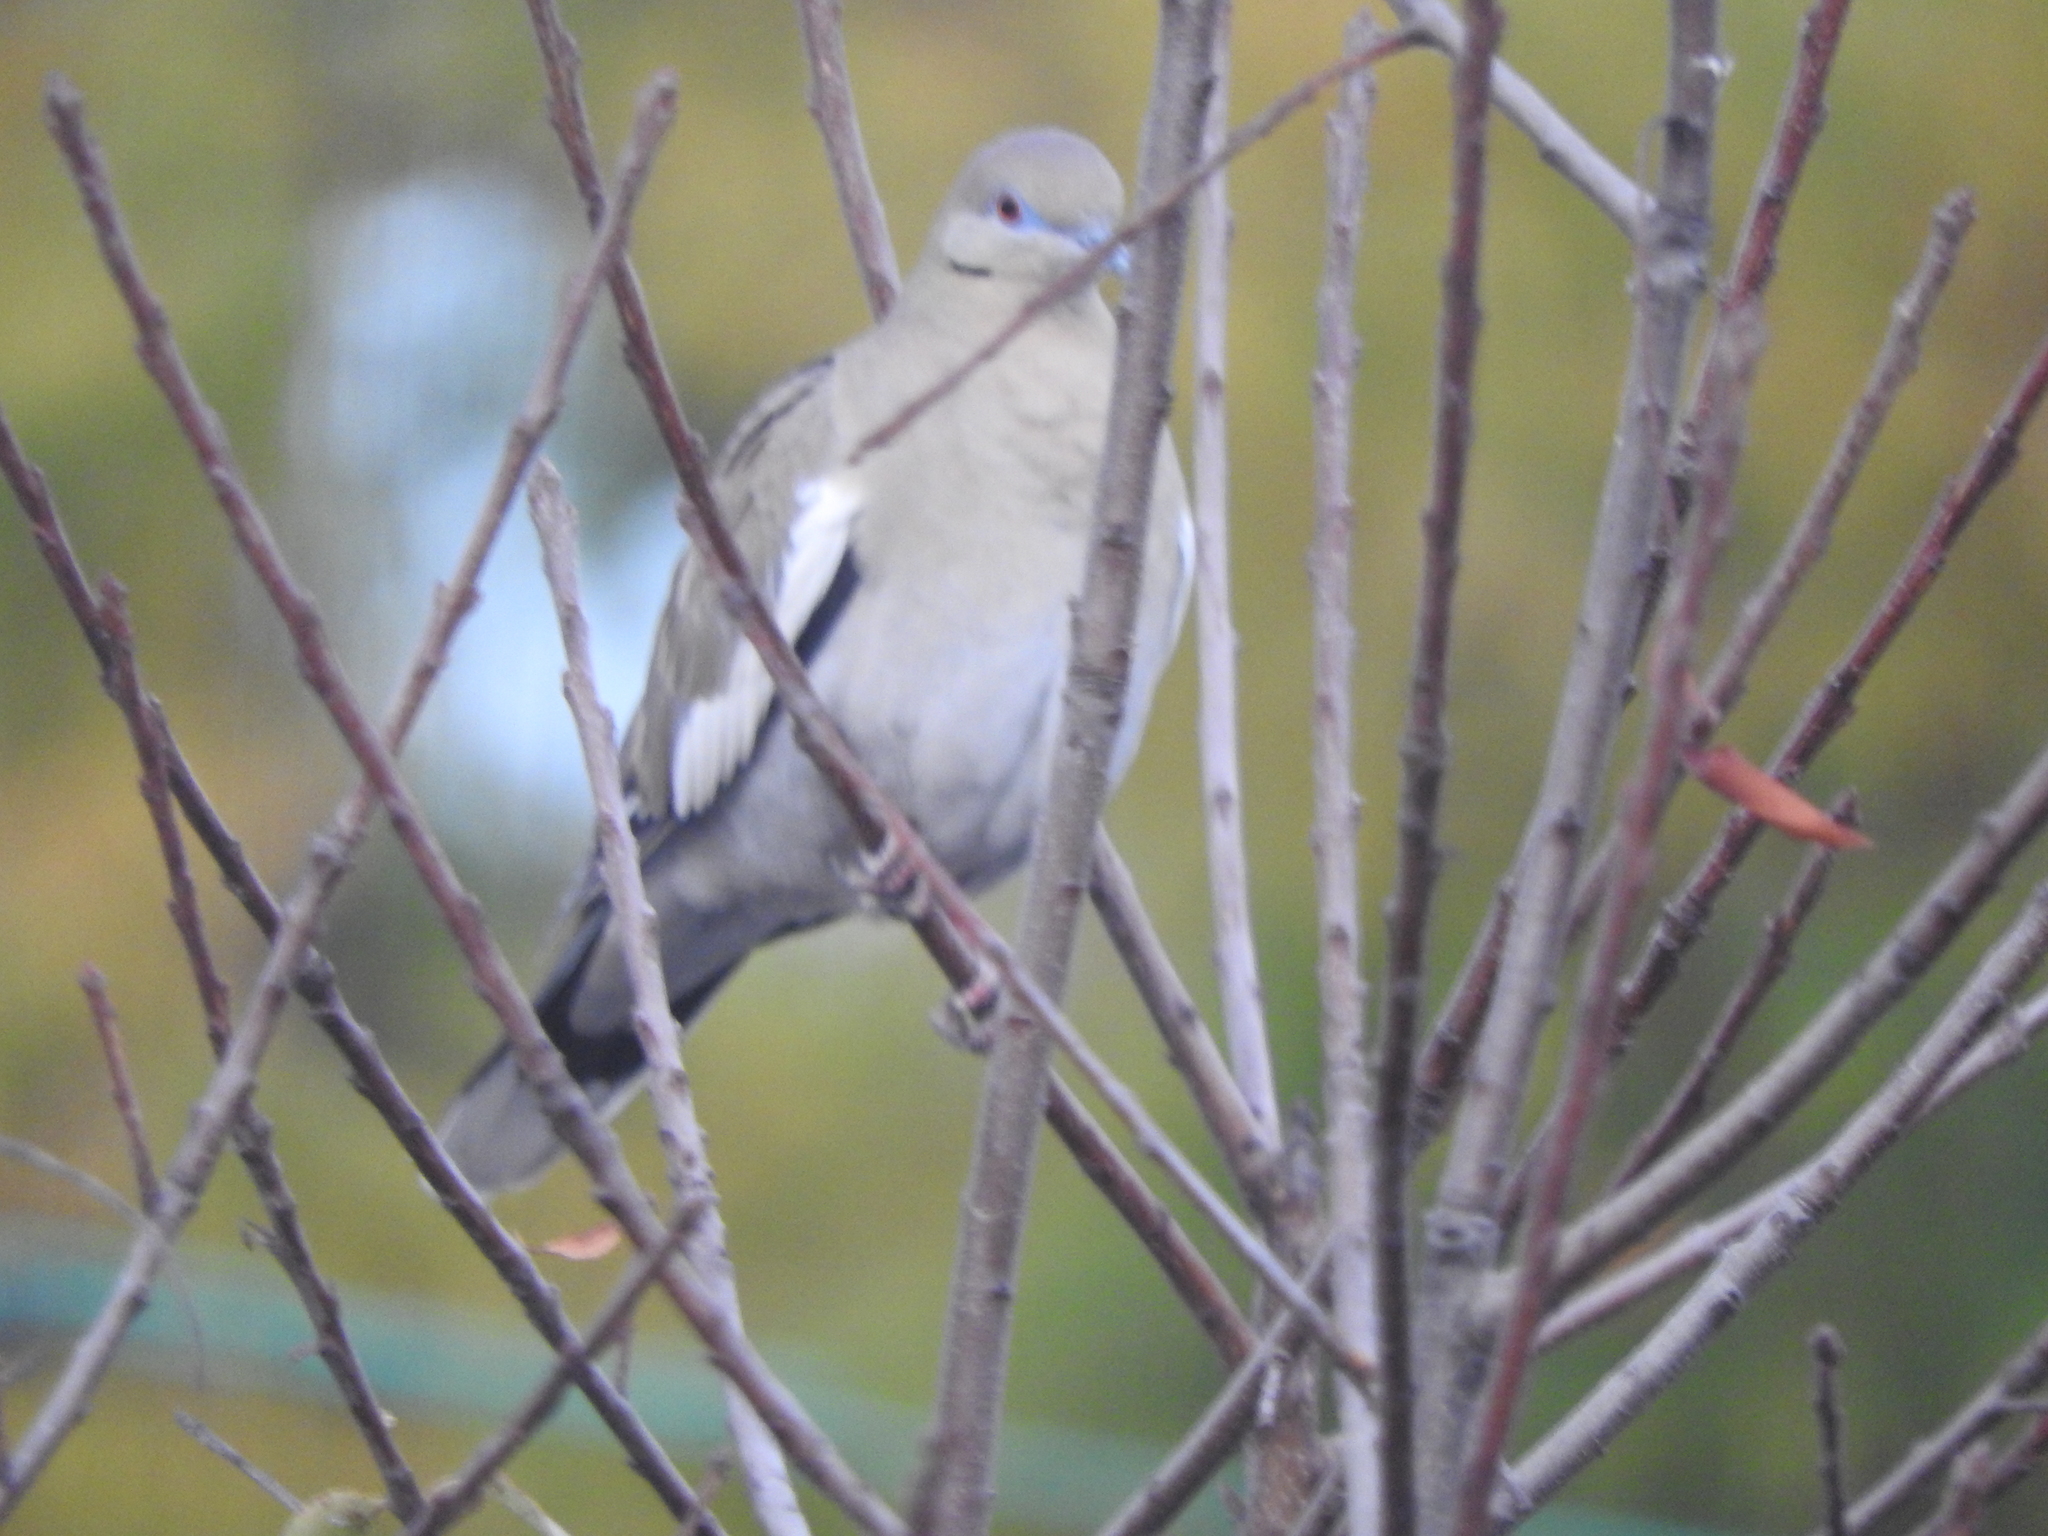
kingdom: Animalia
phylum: Chordata
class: Aves
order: Columbiformes
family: Columbidae
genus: Zenaida
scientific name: Zenaida asiatica
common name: White-winged dove
